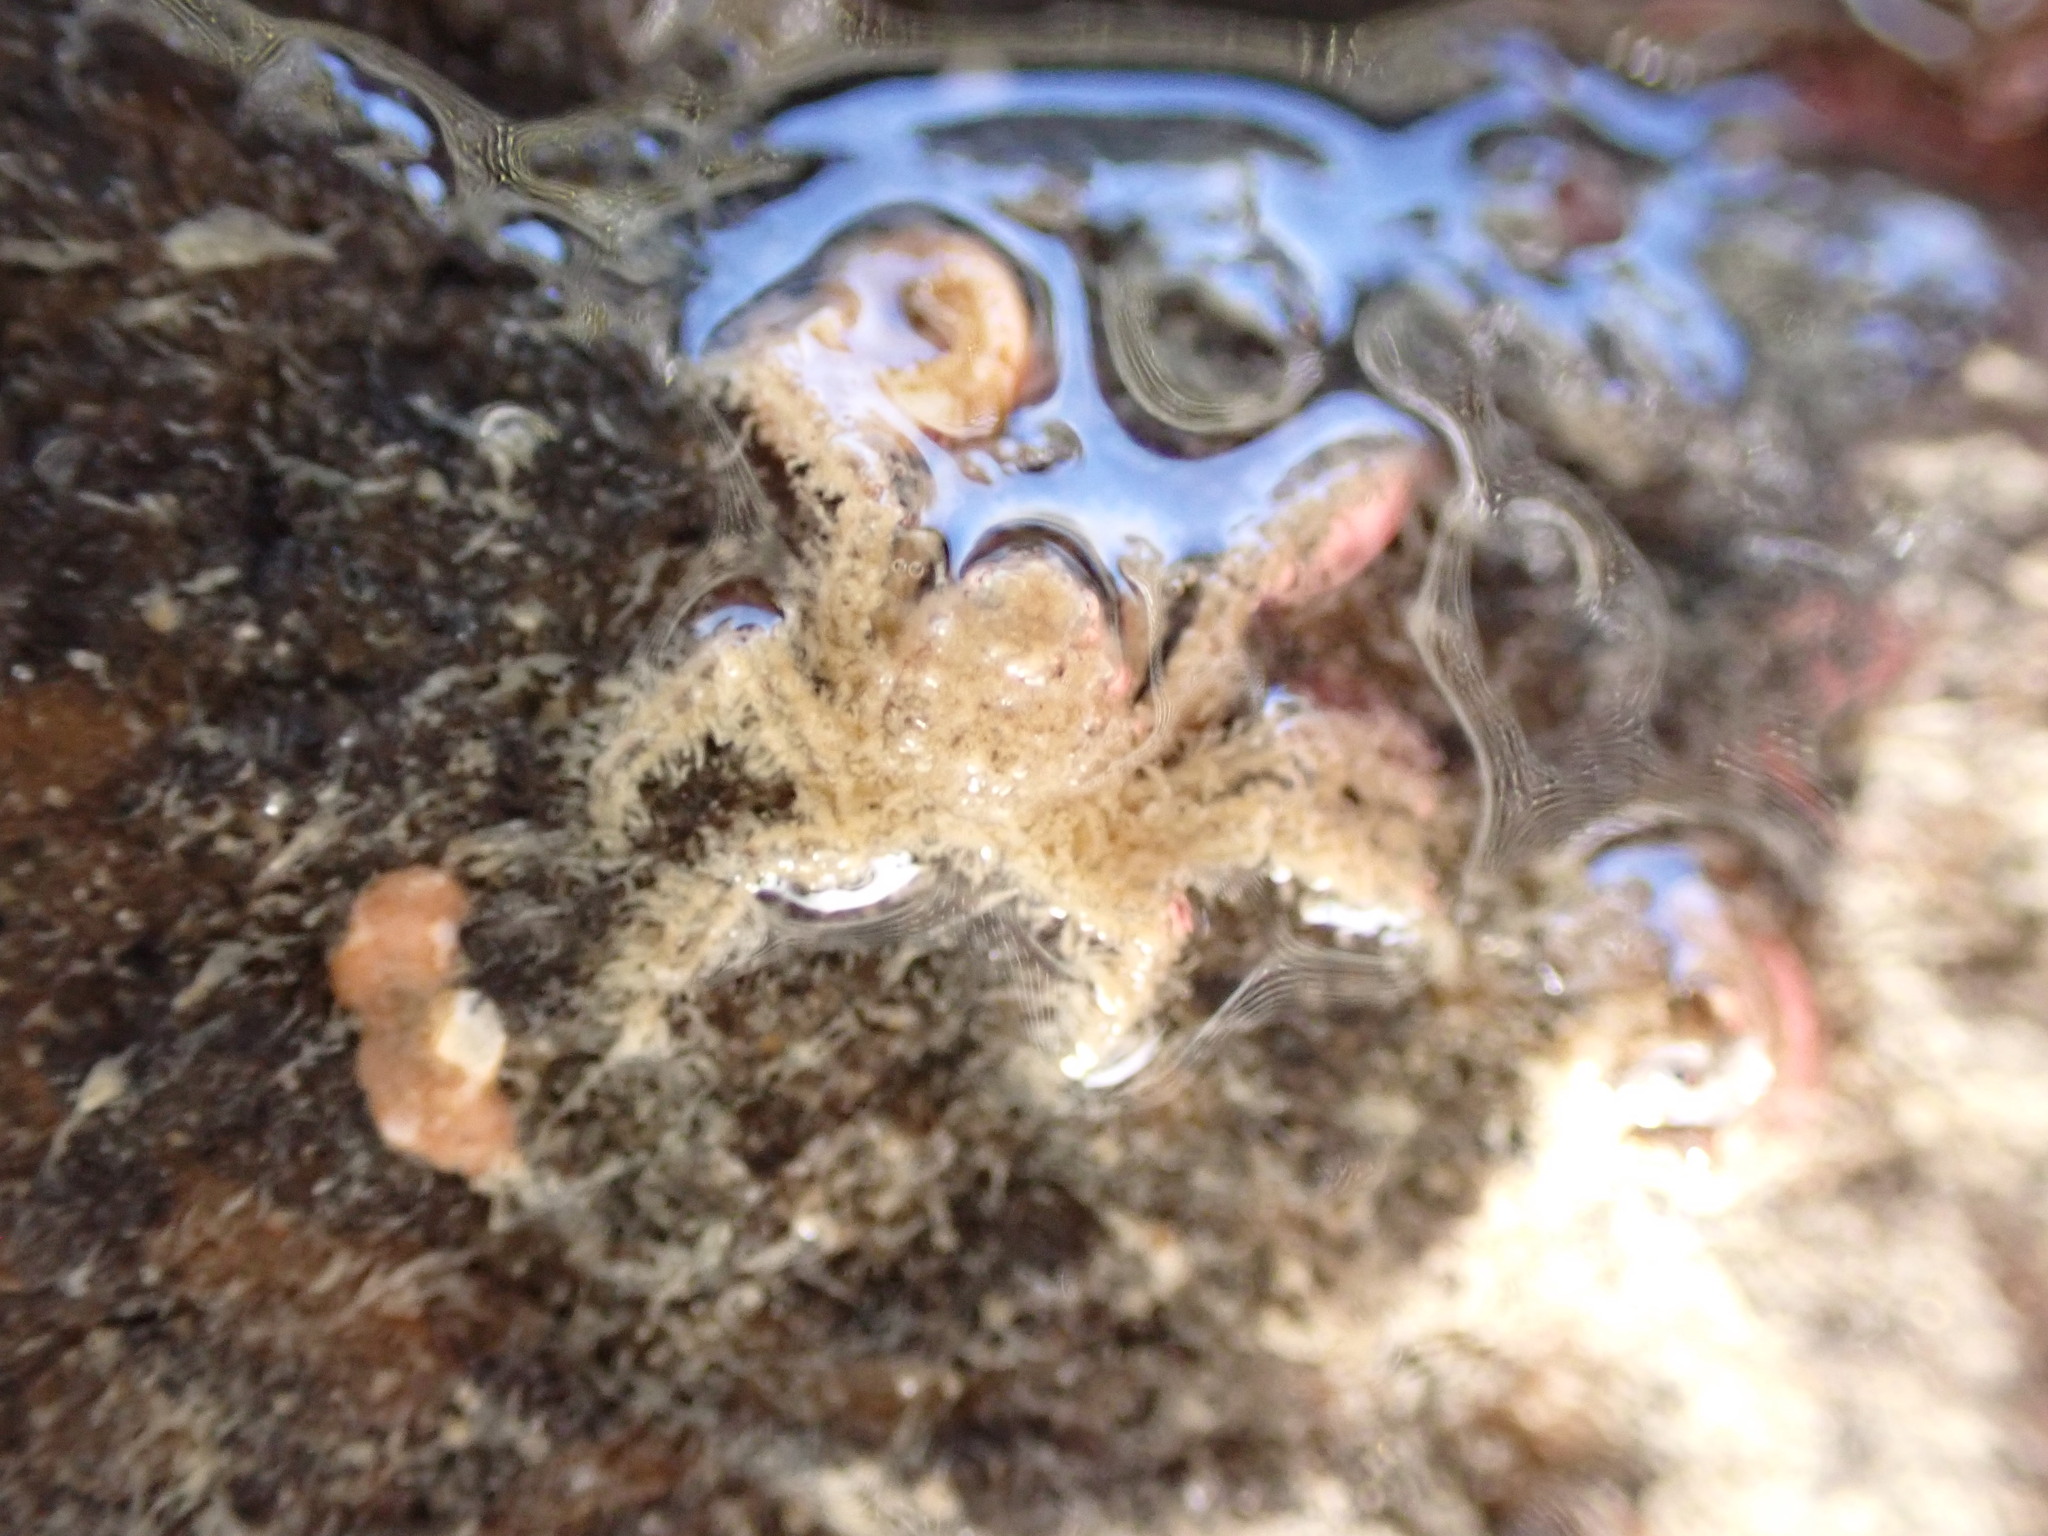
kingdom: Animalia
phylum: Arthropoda
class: Malacostraca
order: Decapoda
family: Hymenosomatidae
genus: Neohymenicus
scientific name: Neohymenicus pubescens
